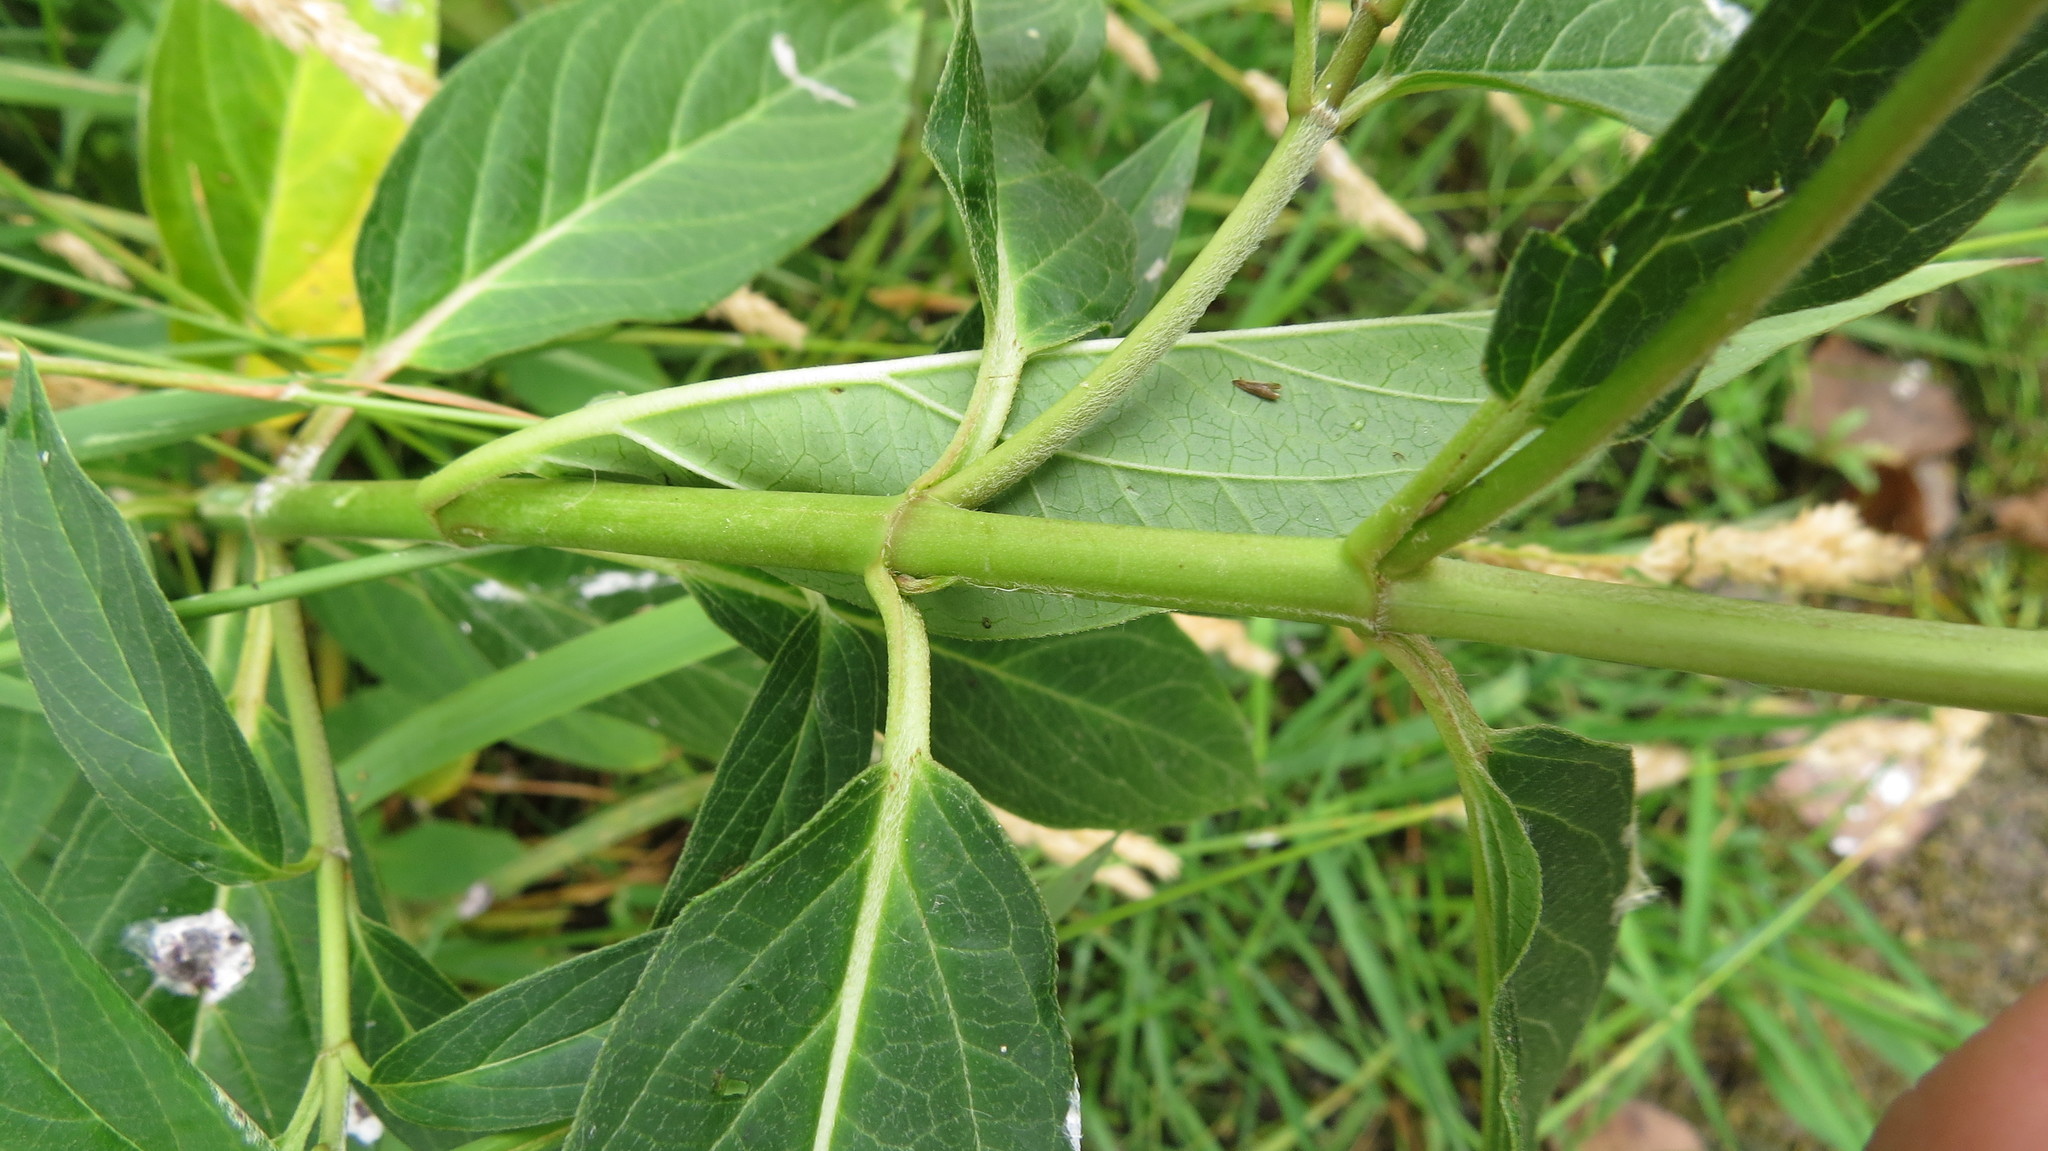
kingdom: Plantae
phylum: Tracheophyta
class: Magnoliopsida
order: Gentianales
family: Apocynaceae
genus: Asclepias
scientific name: Asclepias incarnata
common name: Swamp milkweed
